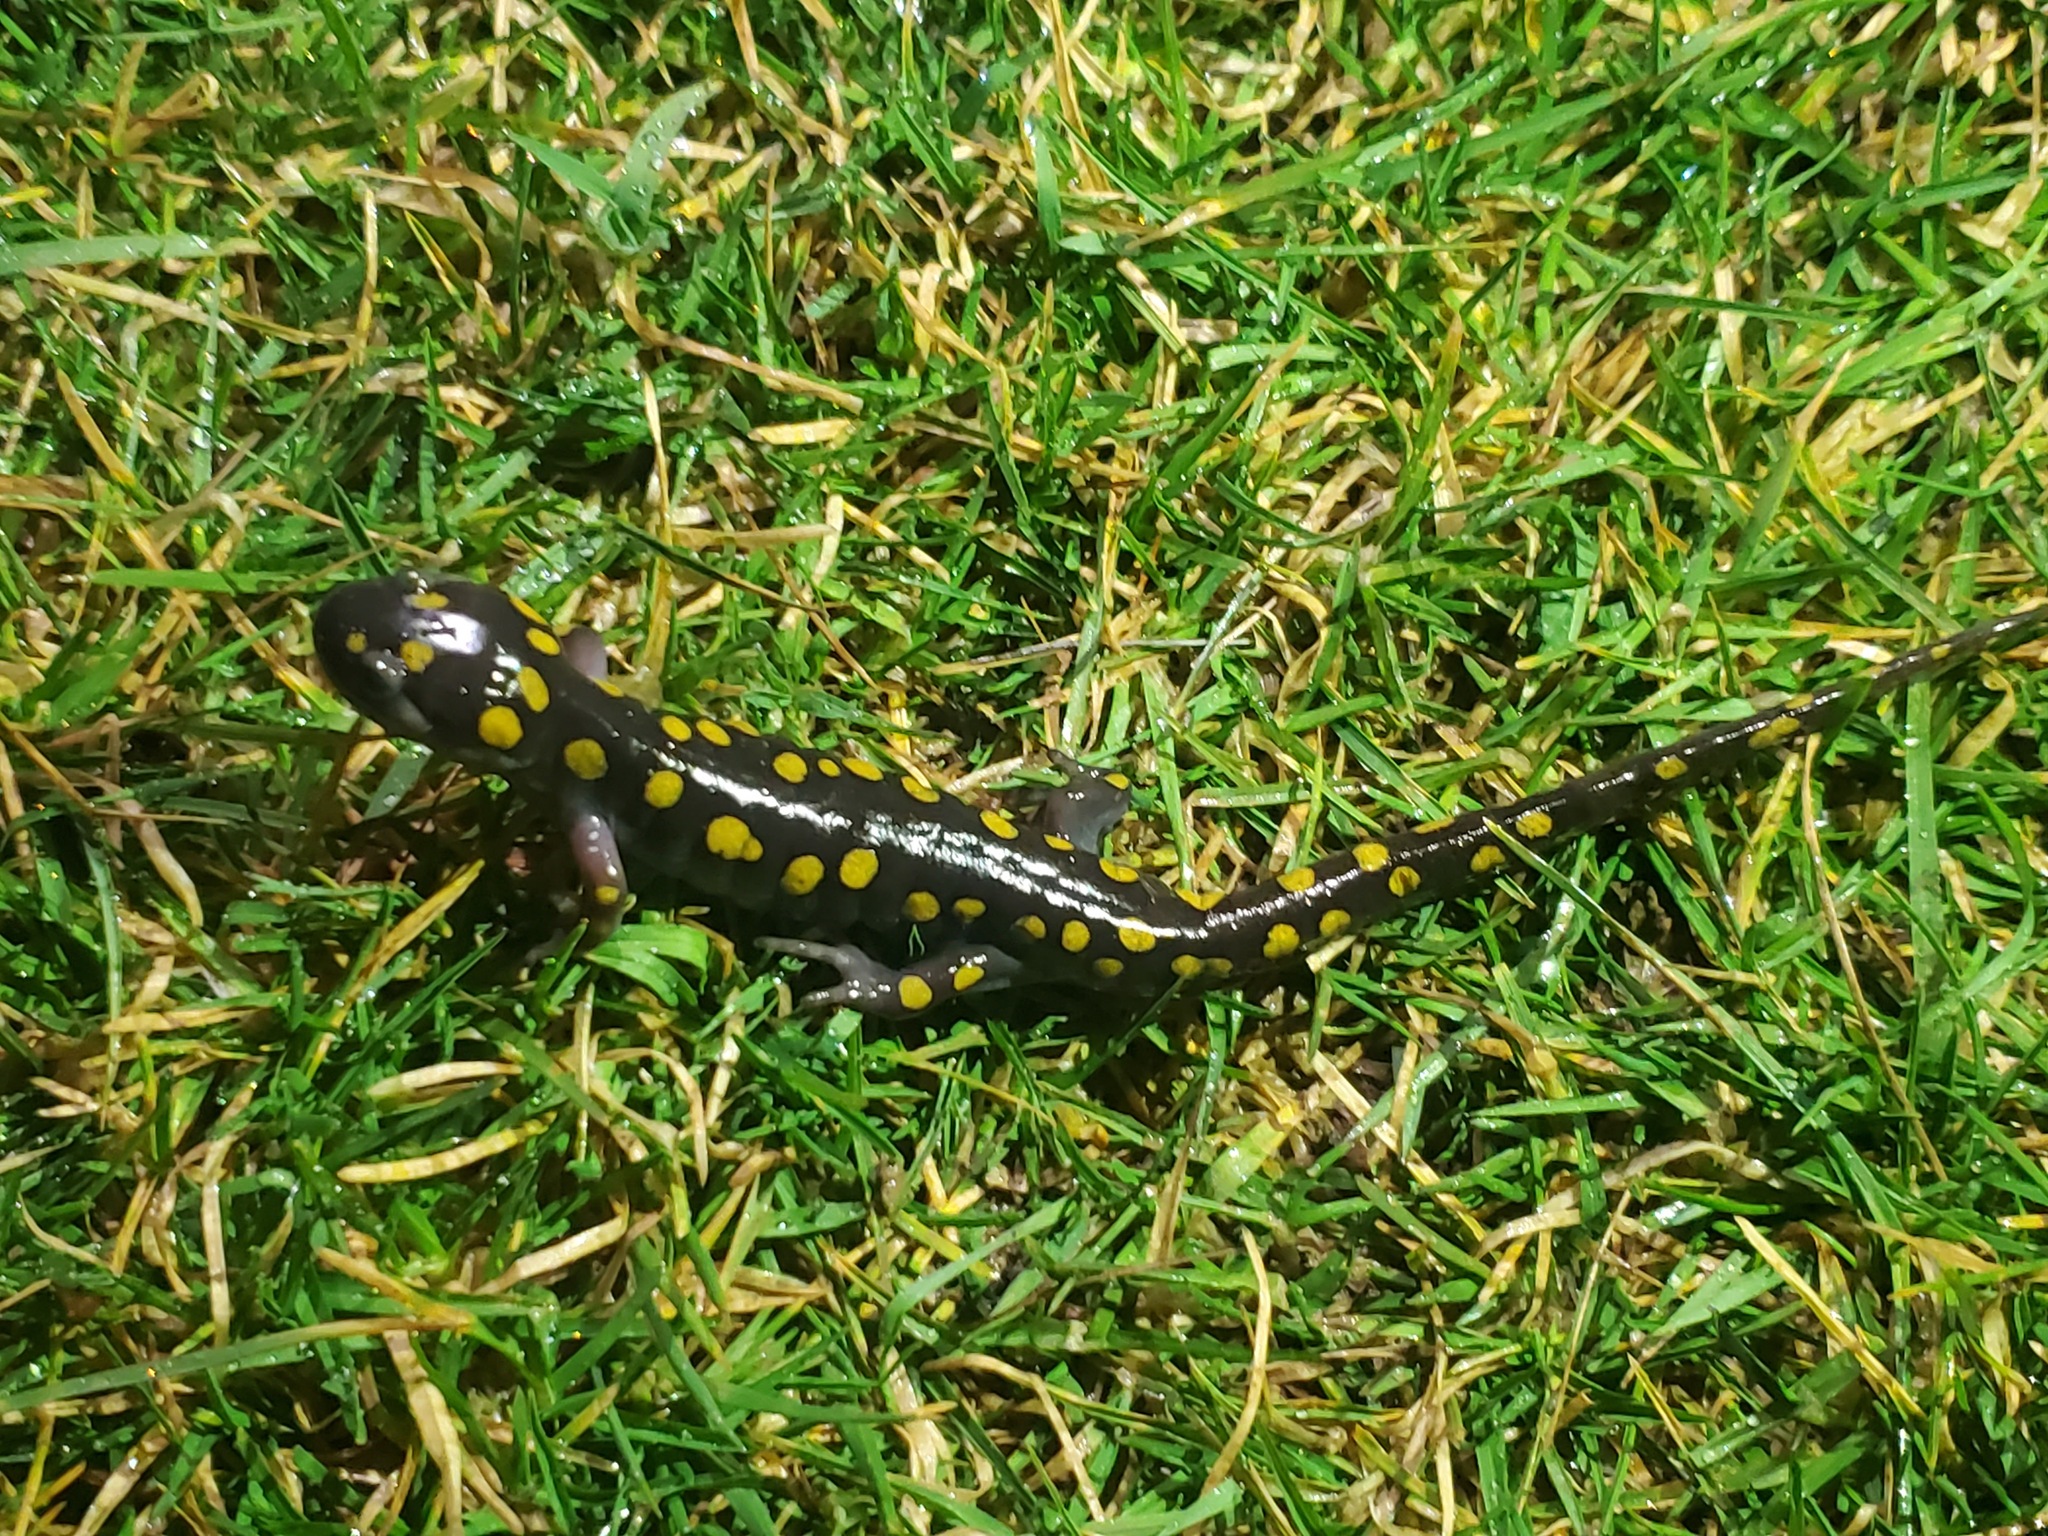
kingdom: Animalia
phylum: Chordata
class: Amphibia
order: Caudata
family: Ambystomatidae
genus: Ambystoma
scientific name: Ambystoma maculatum
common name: Spotted salamander
